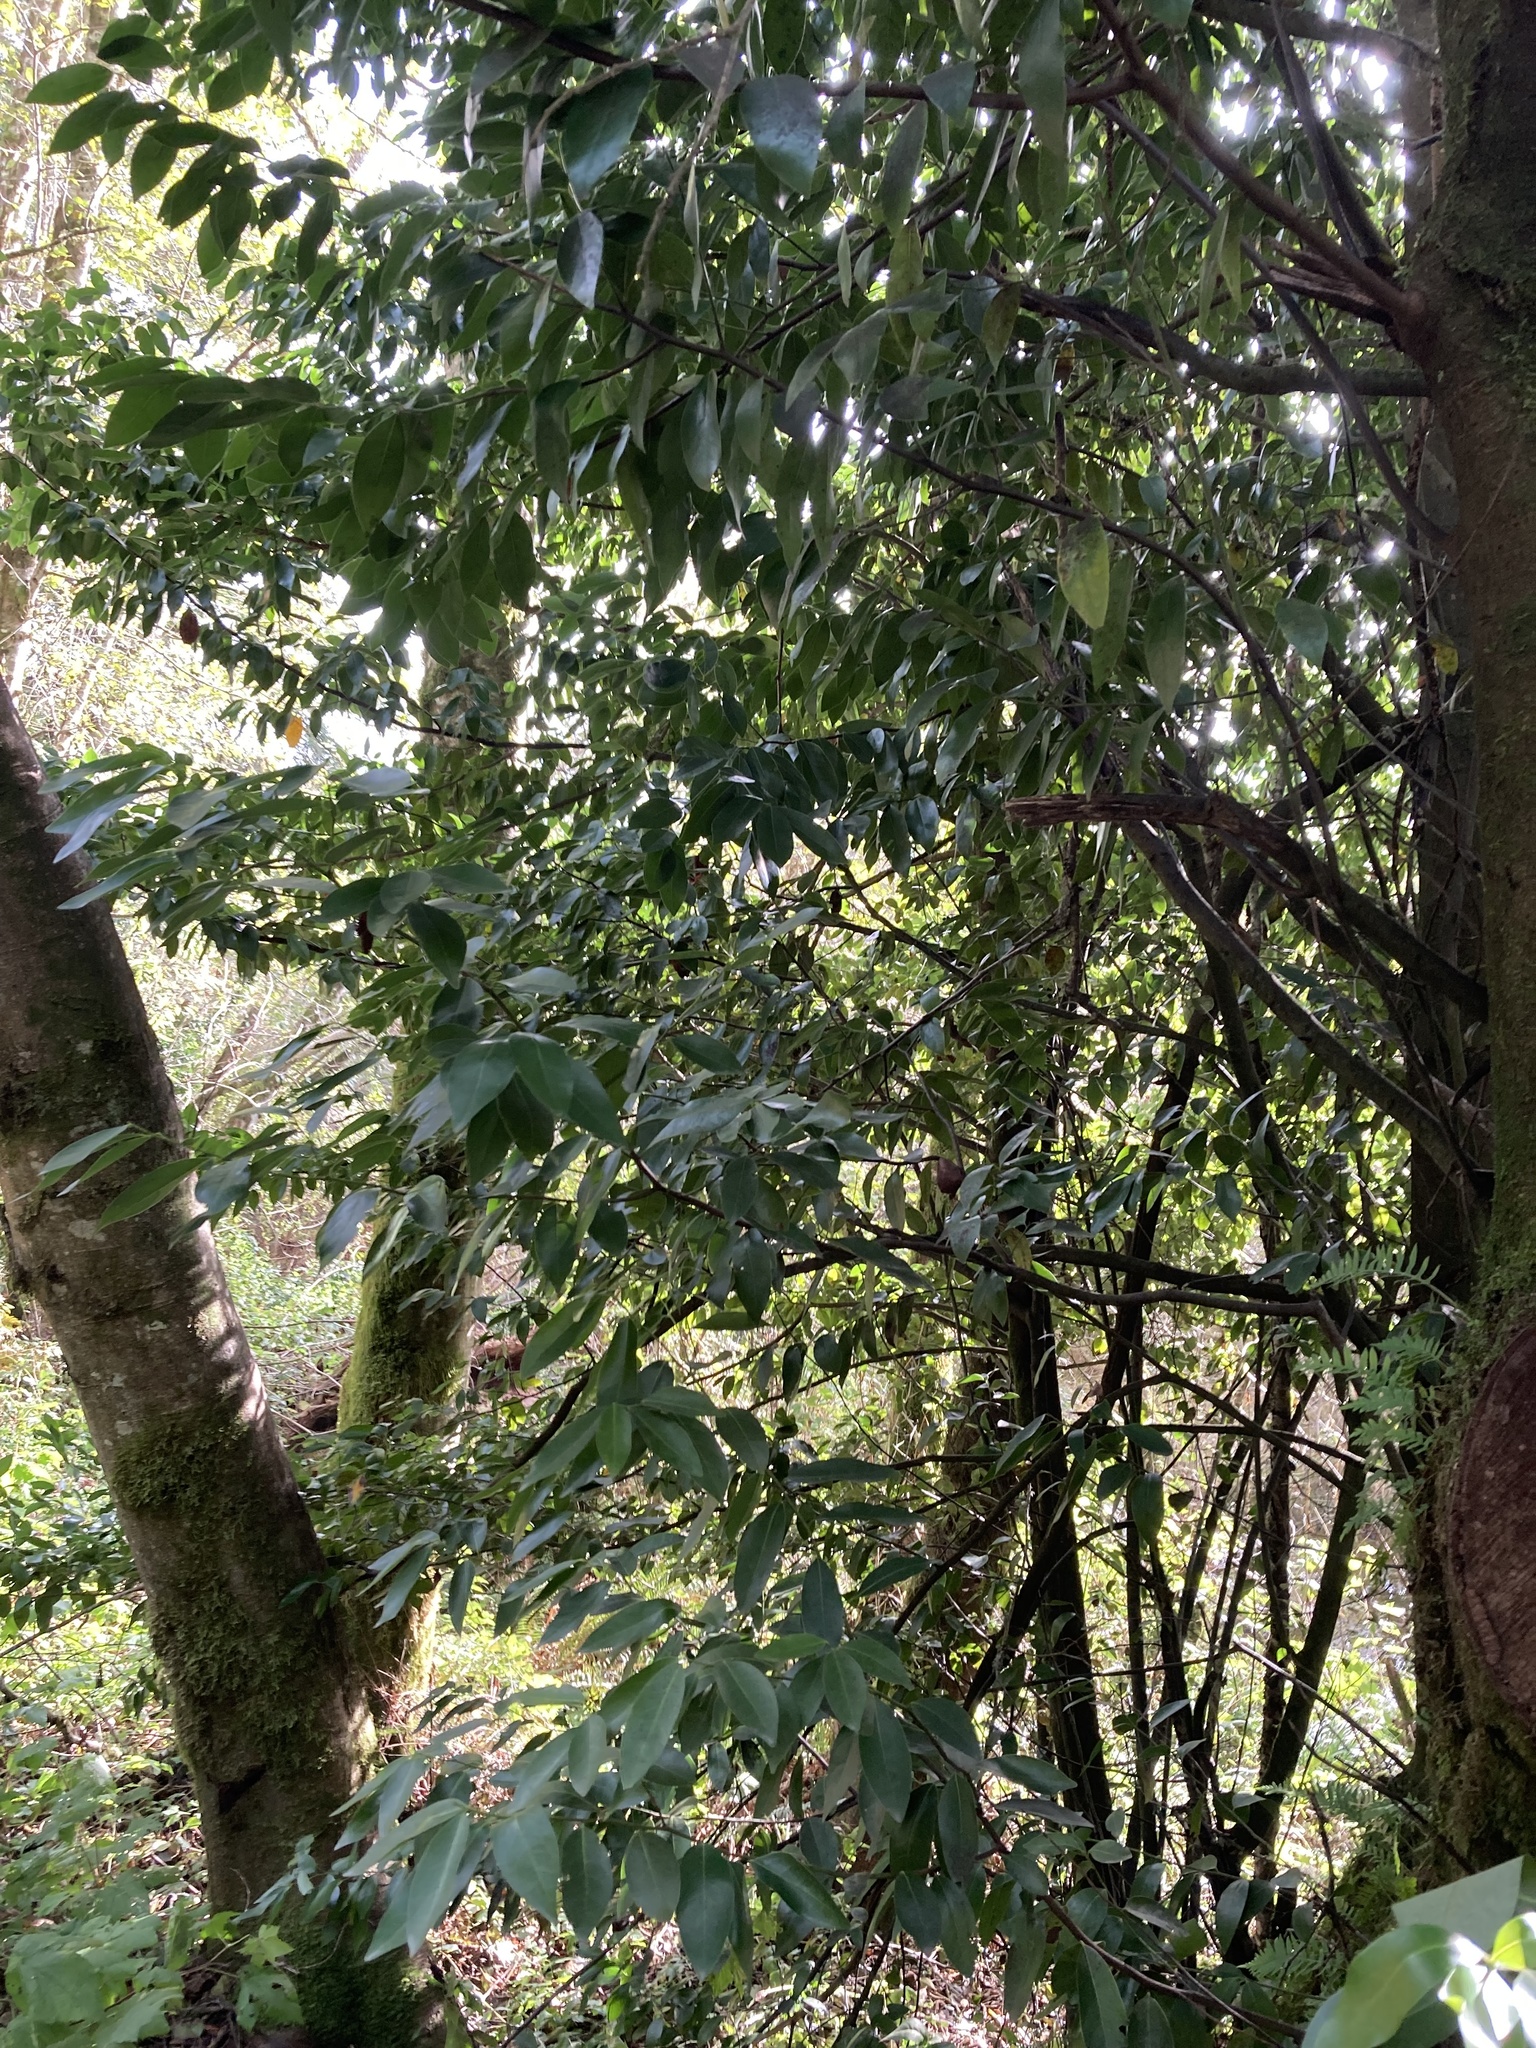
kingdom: Plantae
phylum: Tracheophyta
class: Magnoliopsida
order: Laurales
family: Lauraceae
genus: Umbellularia
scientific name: Umbellularia californica
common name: California bay
